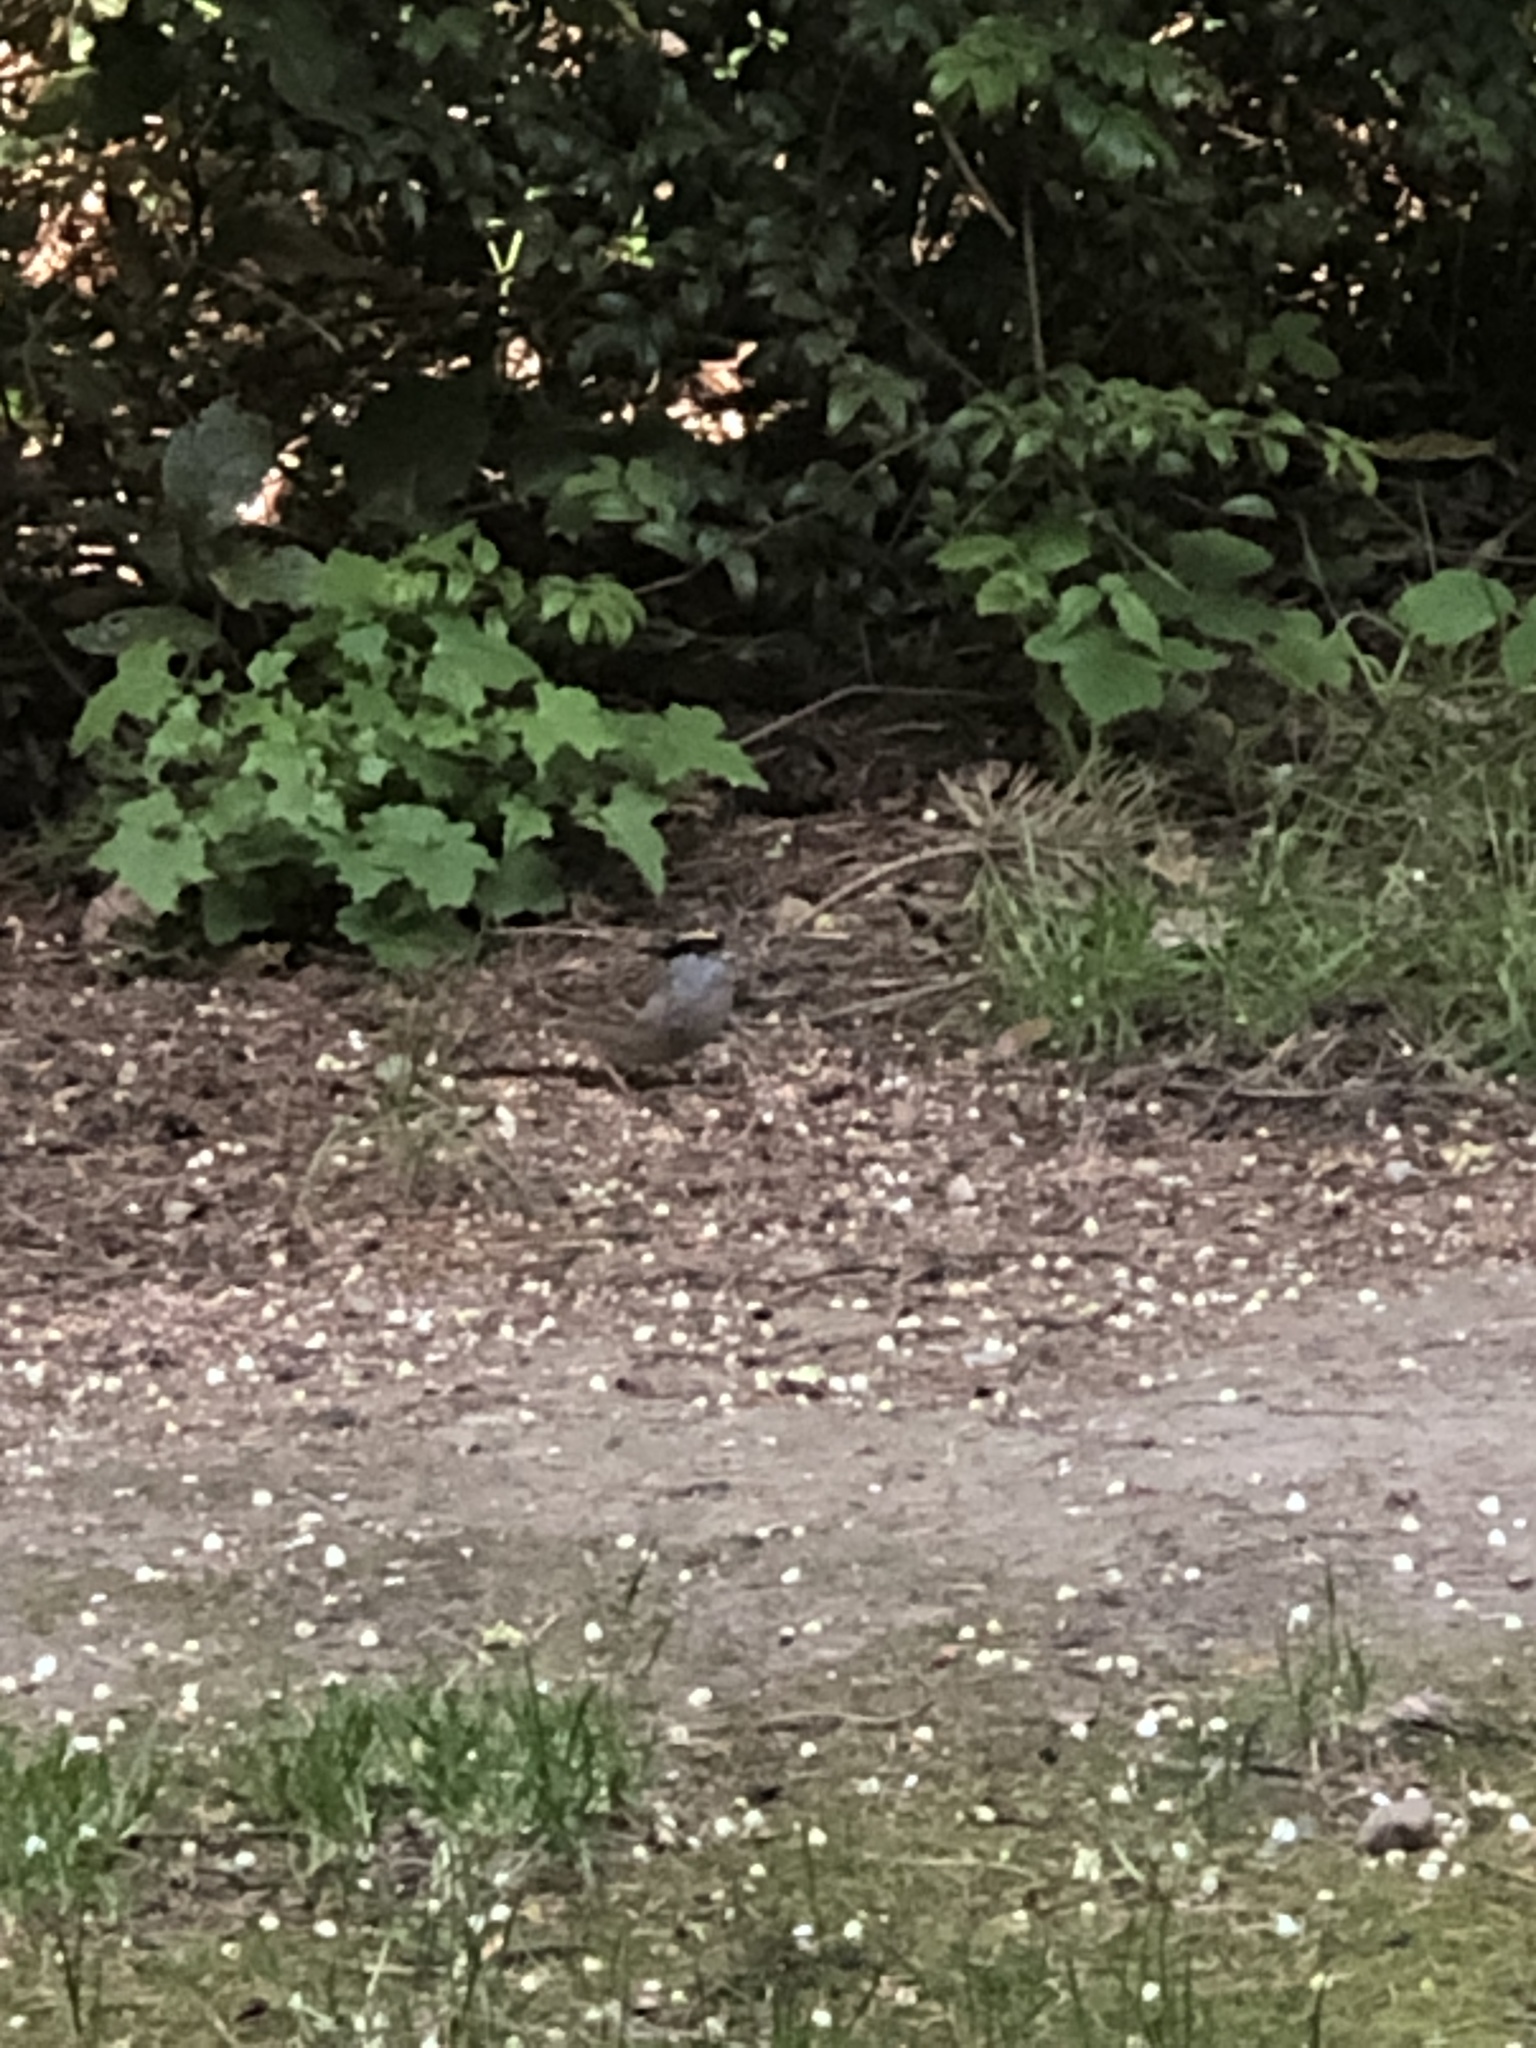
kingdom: Animalia
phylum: Chordata
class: Aves
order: Passeriformes
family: Passerellidae
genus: Zonotrichia
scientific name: Zonotrichia atricapilla
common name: Golden-crowned sparrow
